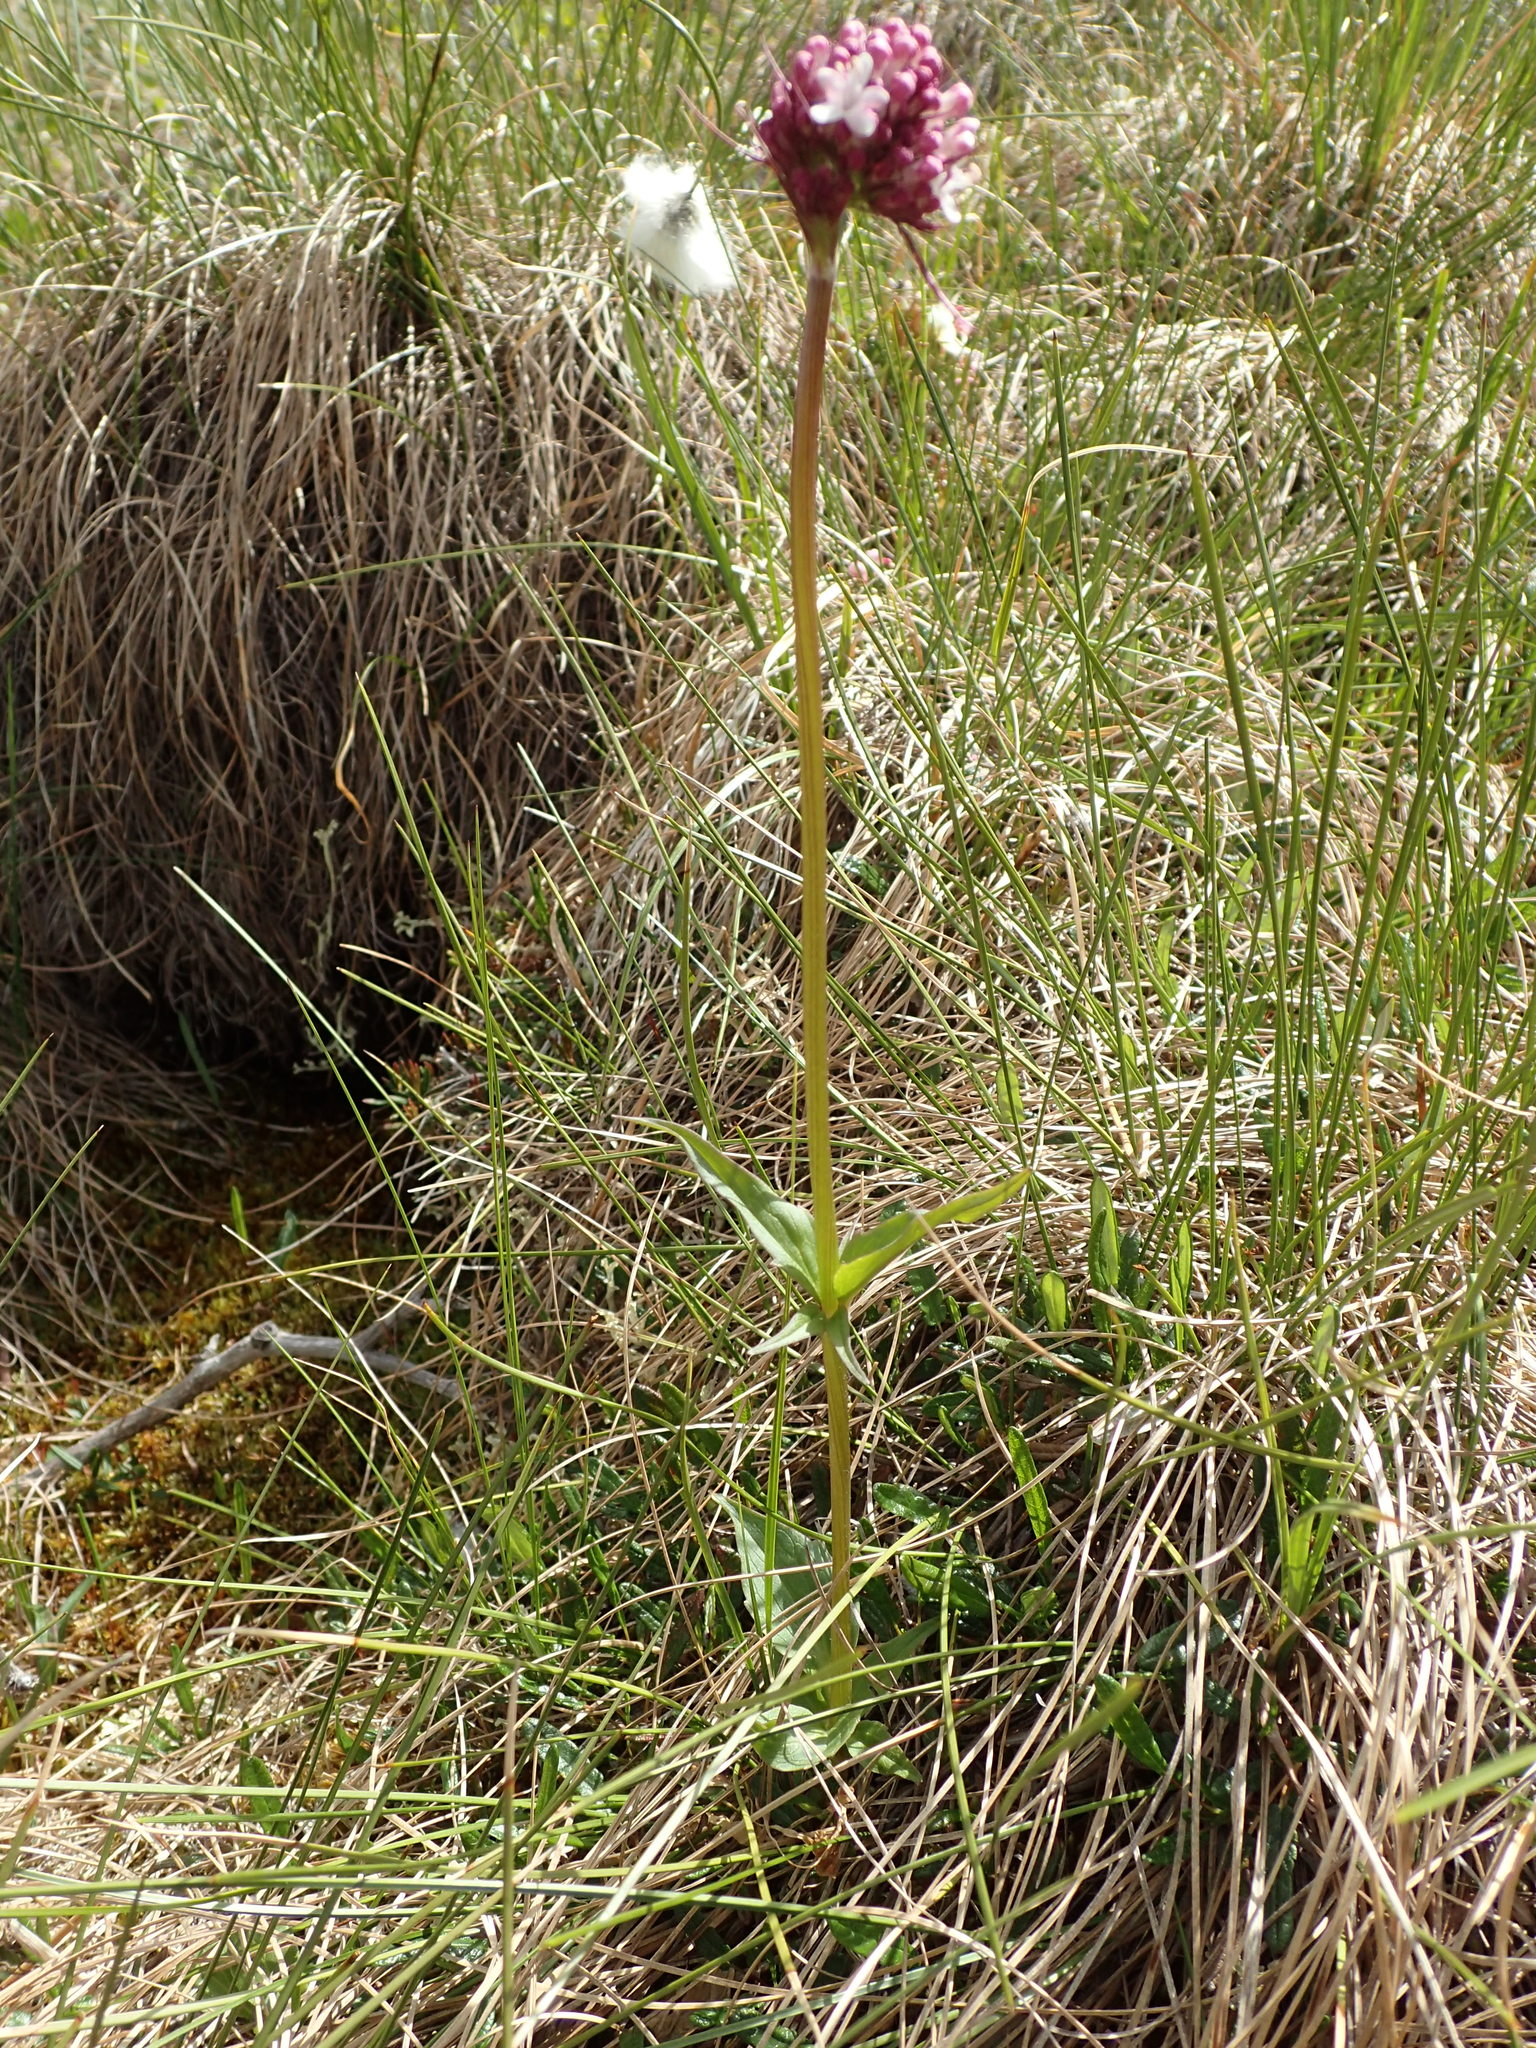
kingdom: Plantae
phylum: Tracheophyta
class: Magnoliopsida
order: Dipsacales
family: Caprifoliaceae
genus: Valeriana
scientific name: Valeriana capitata
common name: Capitate valerian
